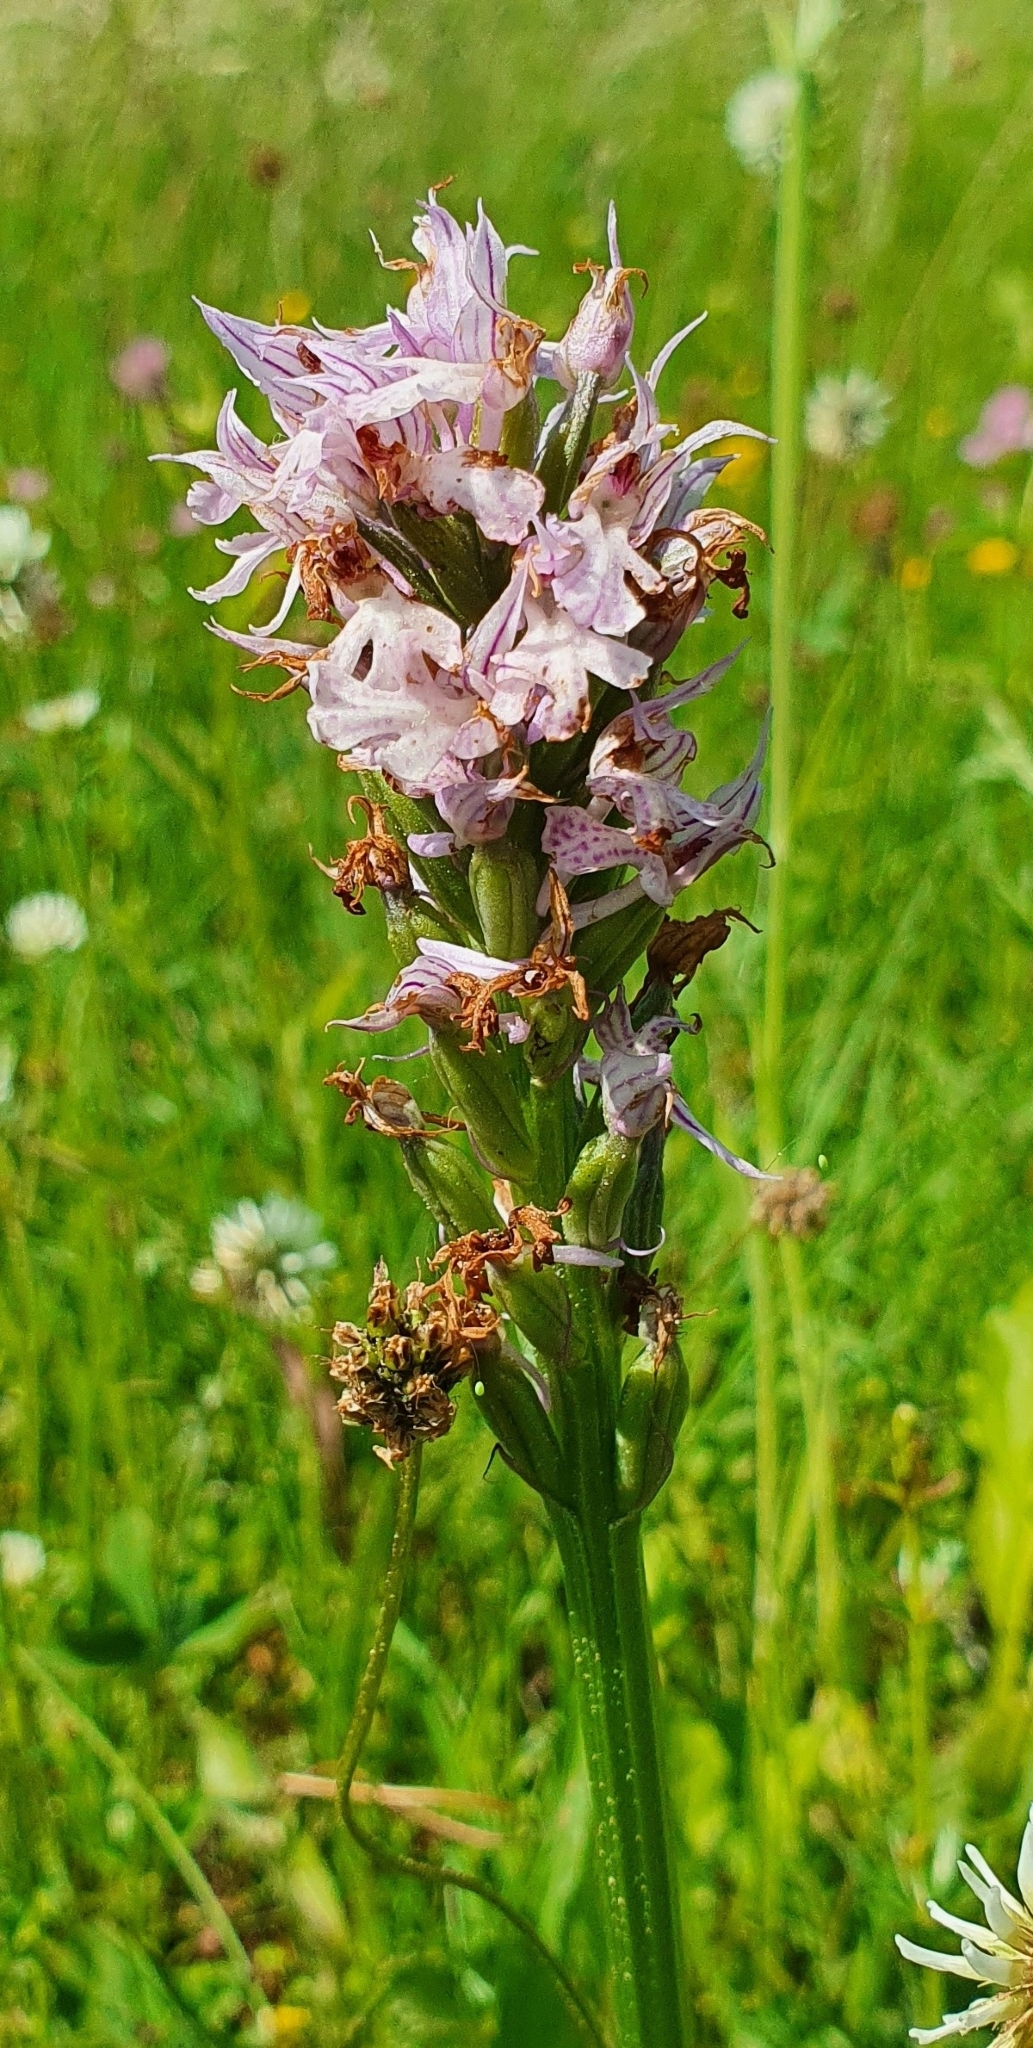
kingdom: Plantae
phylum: Tracheophyta
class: Liliopsida
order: Asparagales
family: Orchidaceae
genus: Neotinea
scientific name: Neotinea tridentata
